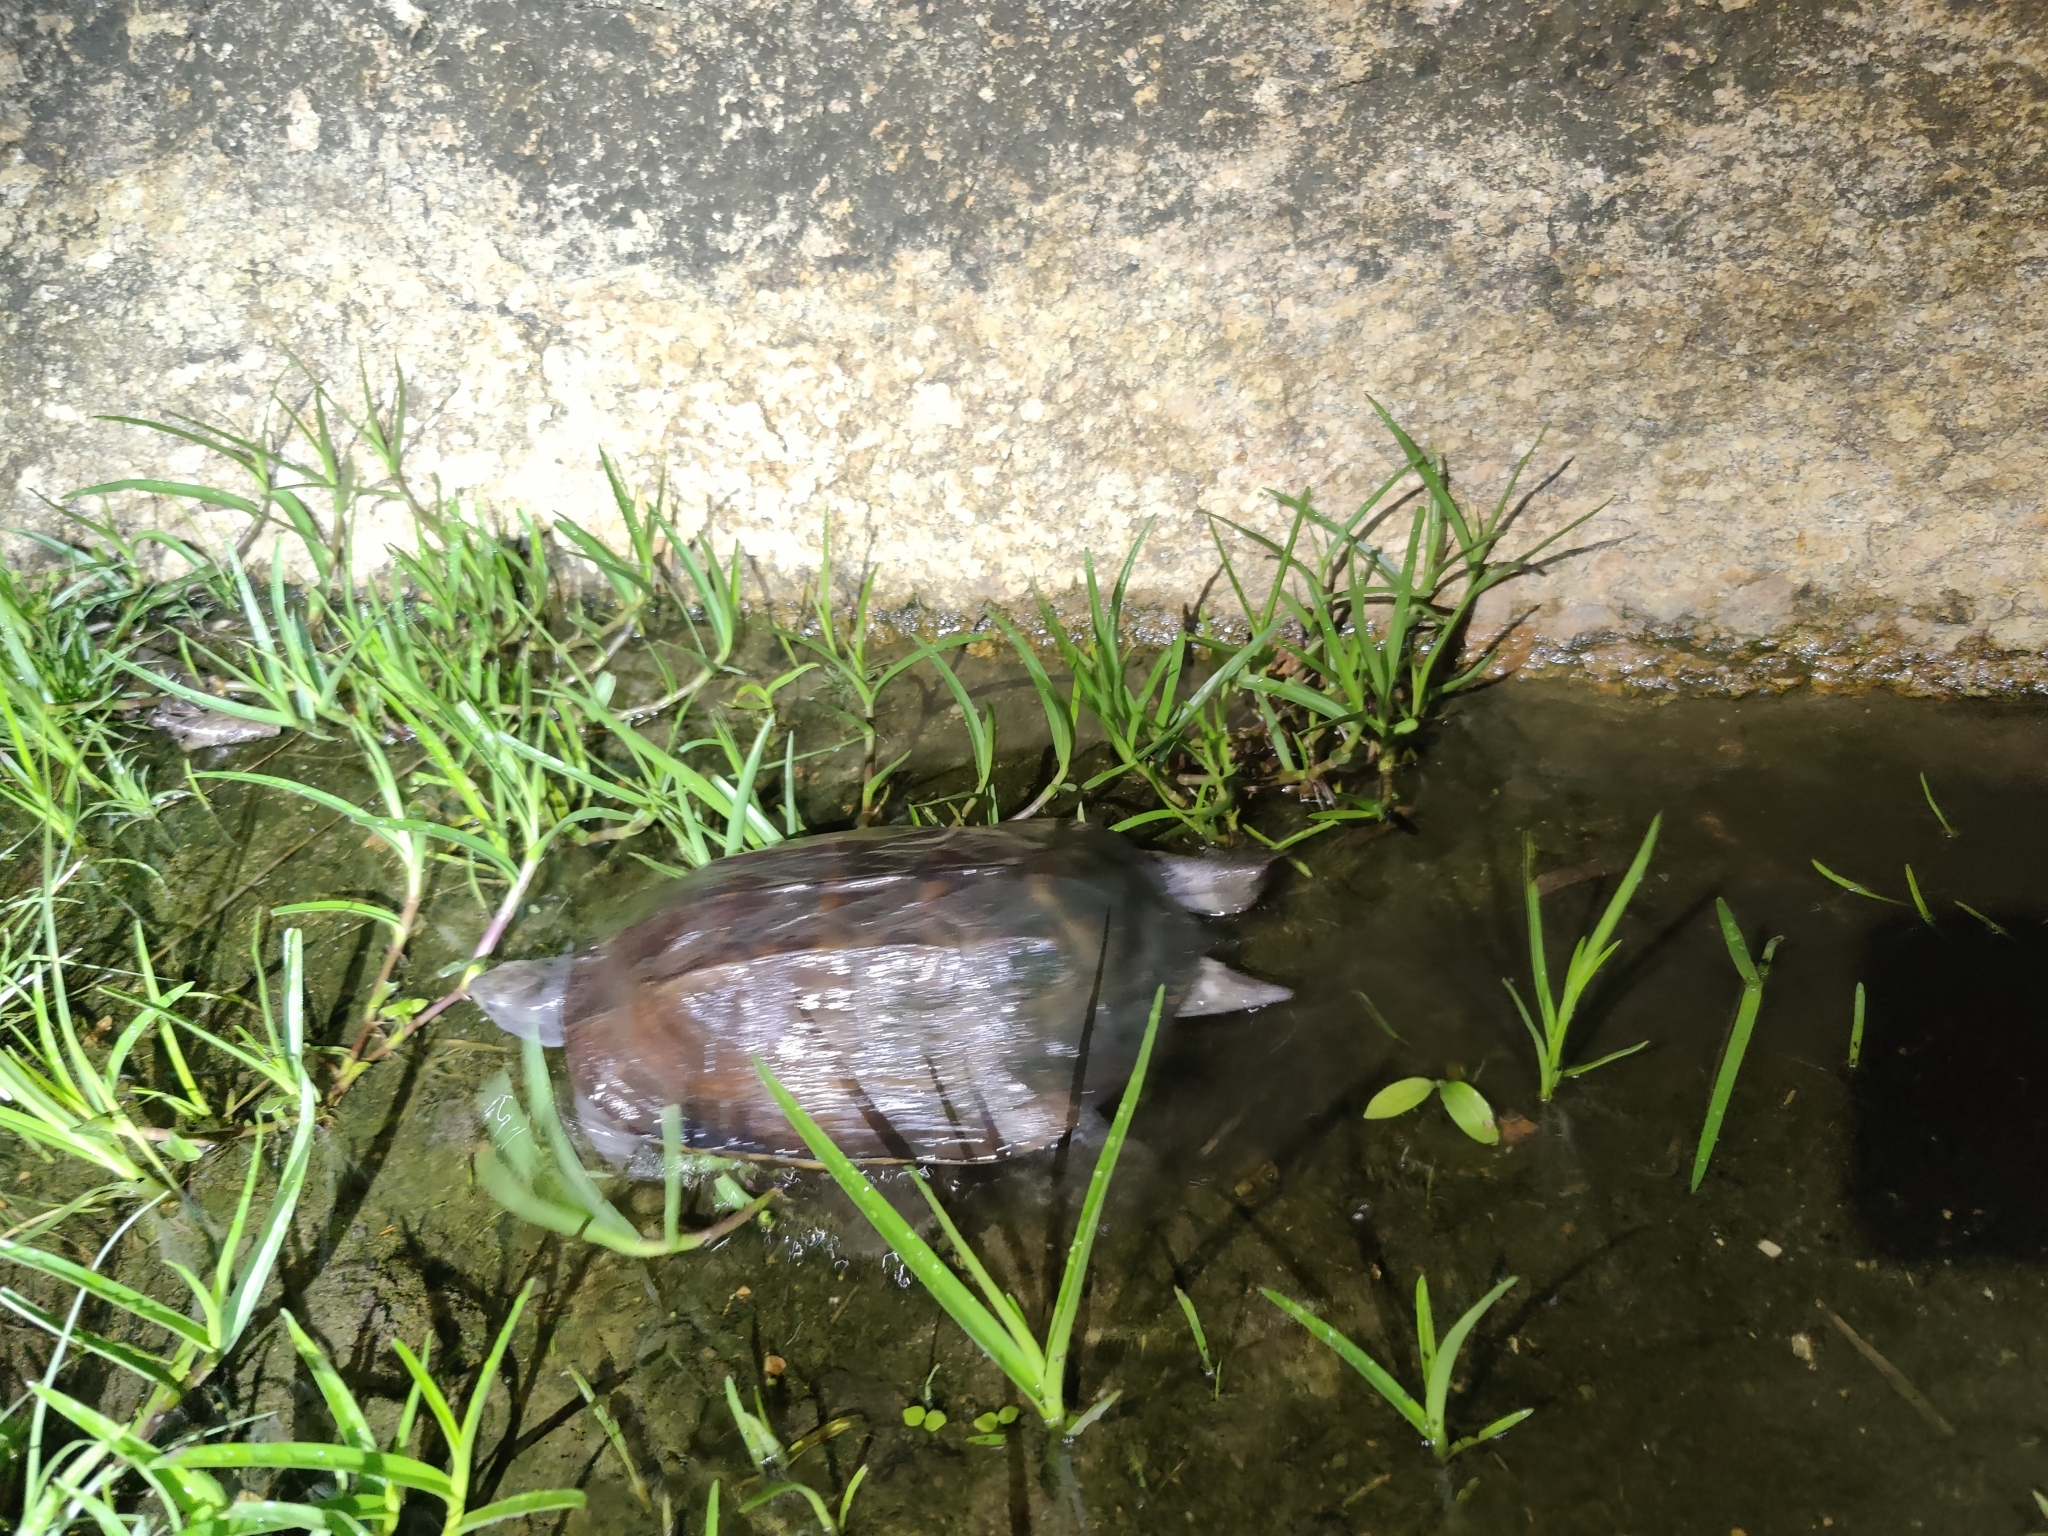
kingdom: Animalia
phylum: Chordata
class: Testudines
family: Geoemydidae
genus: Melanochelys
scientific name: Melanochelys trijuga
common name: Indian black turtle
